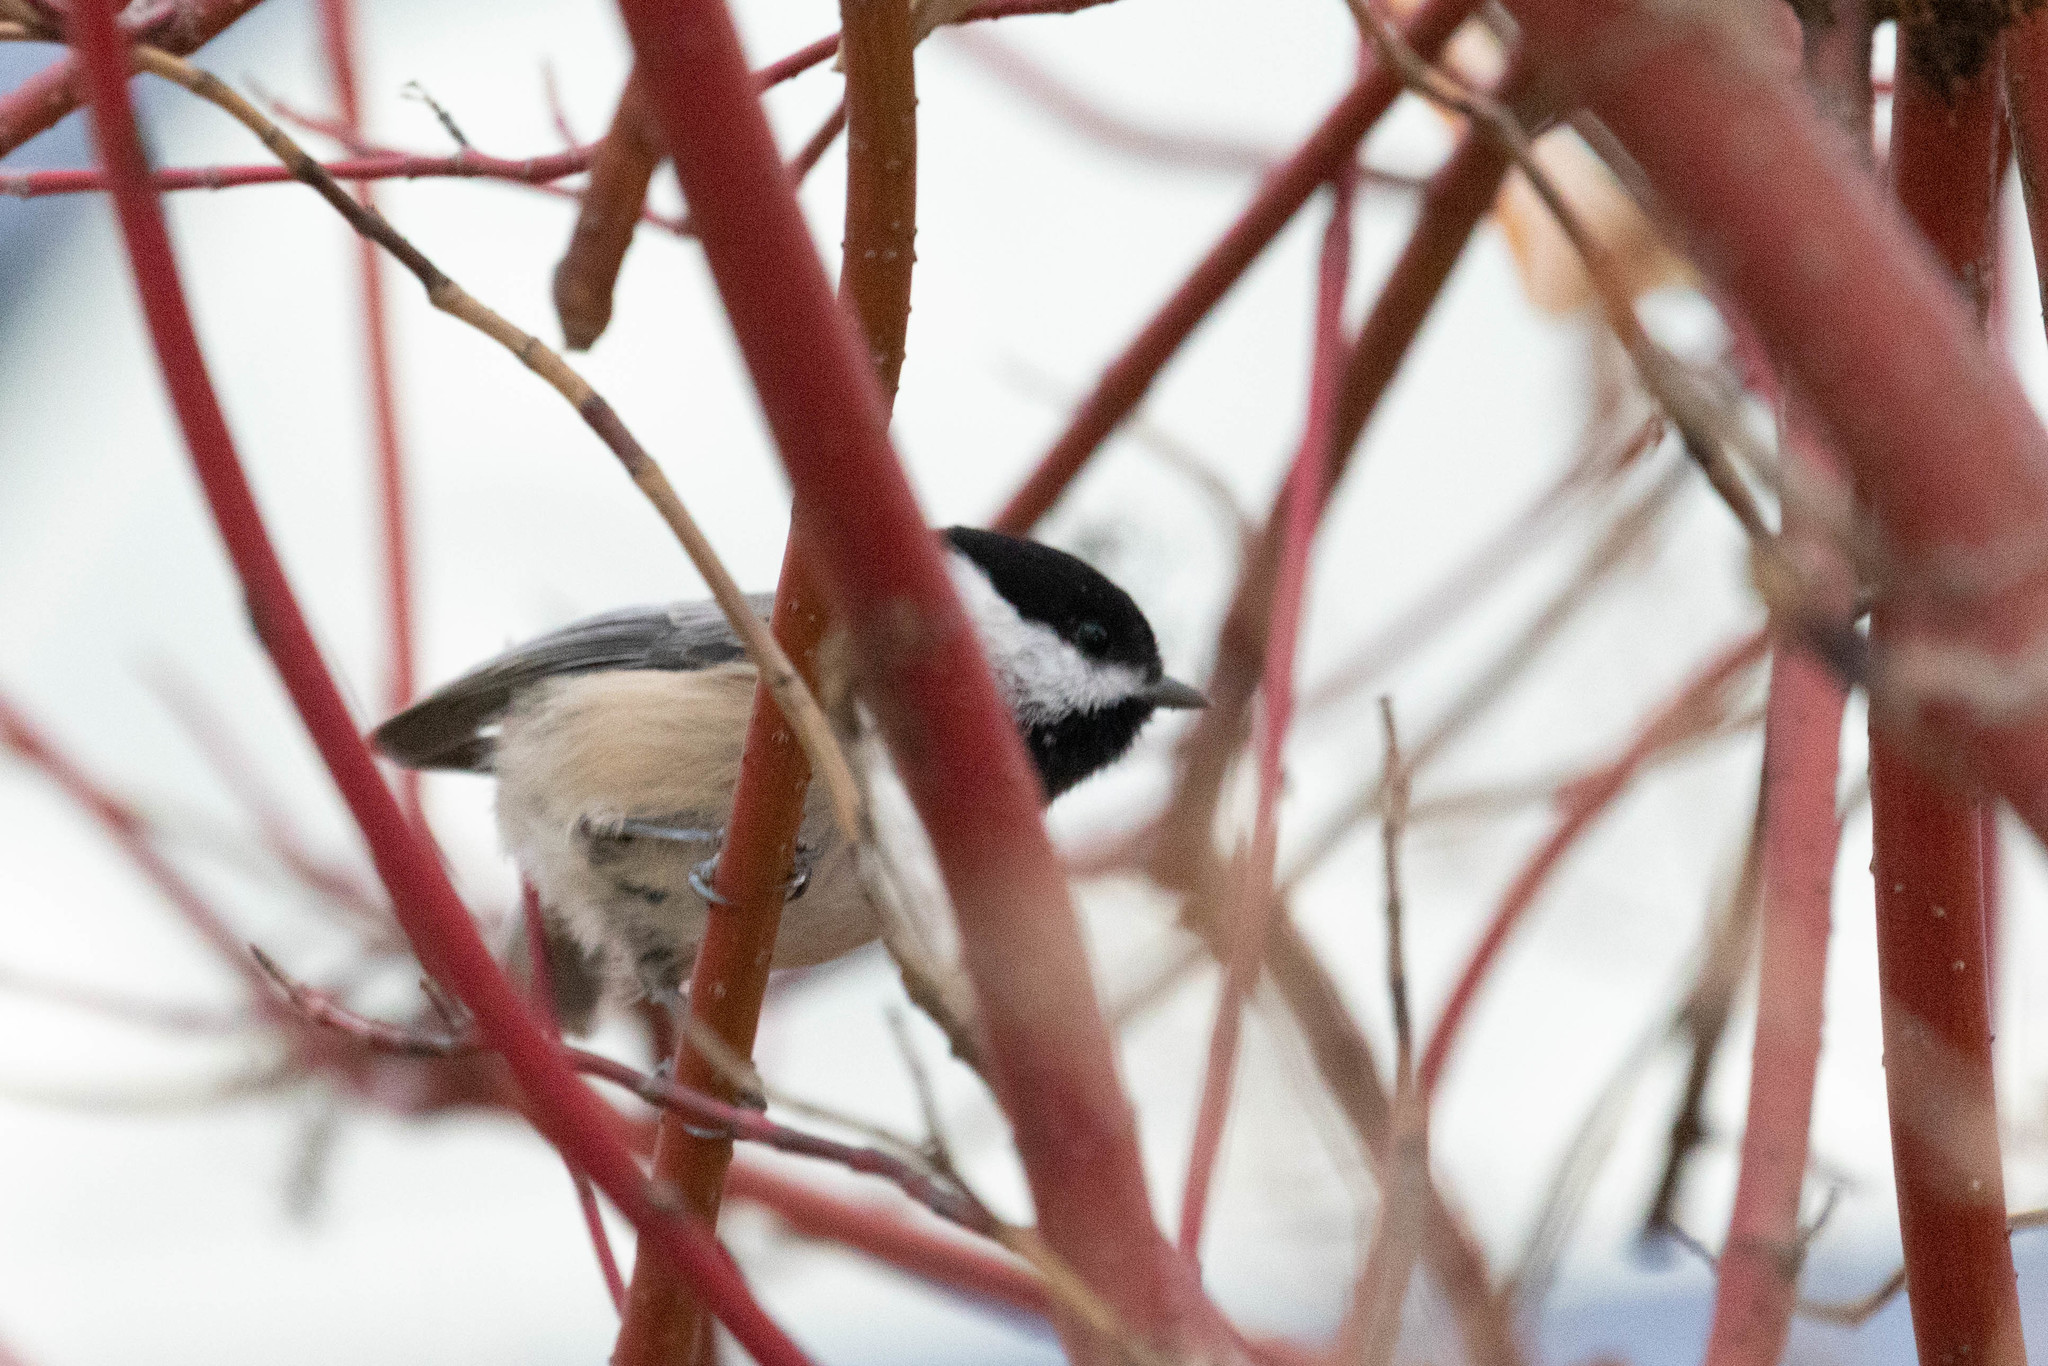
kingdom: Animalia
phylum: Chordata
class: Aves
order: Passeriformes
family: Paridae
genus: Poecile
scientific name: Poecile atricapillus
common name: Black-capped chickadee
